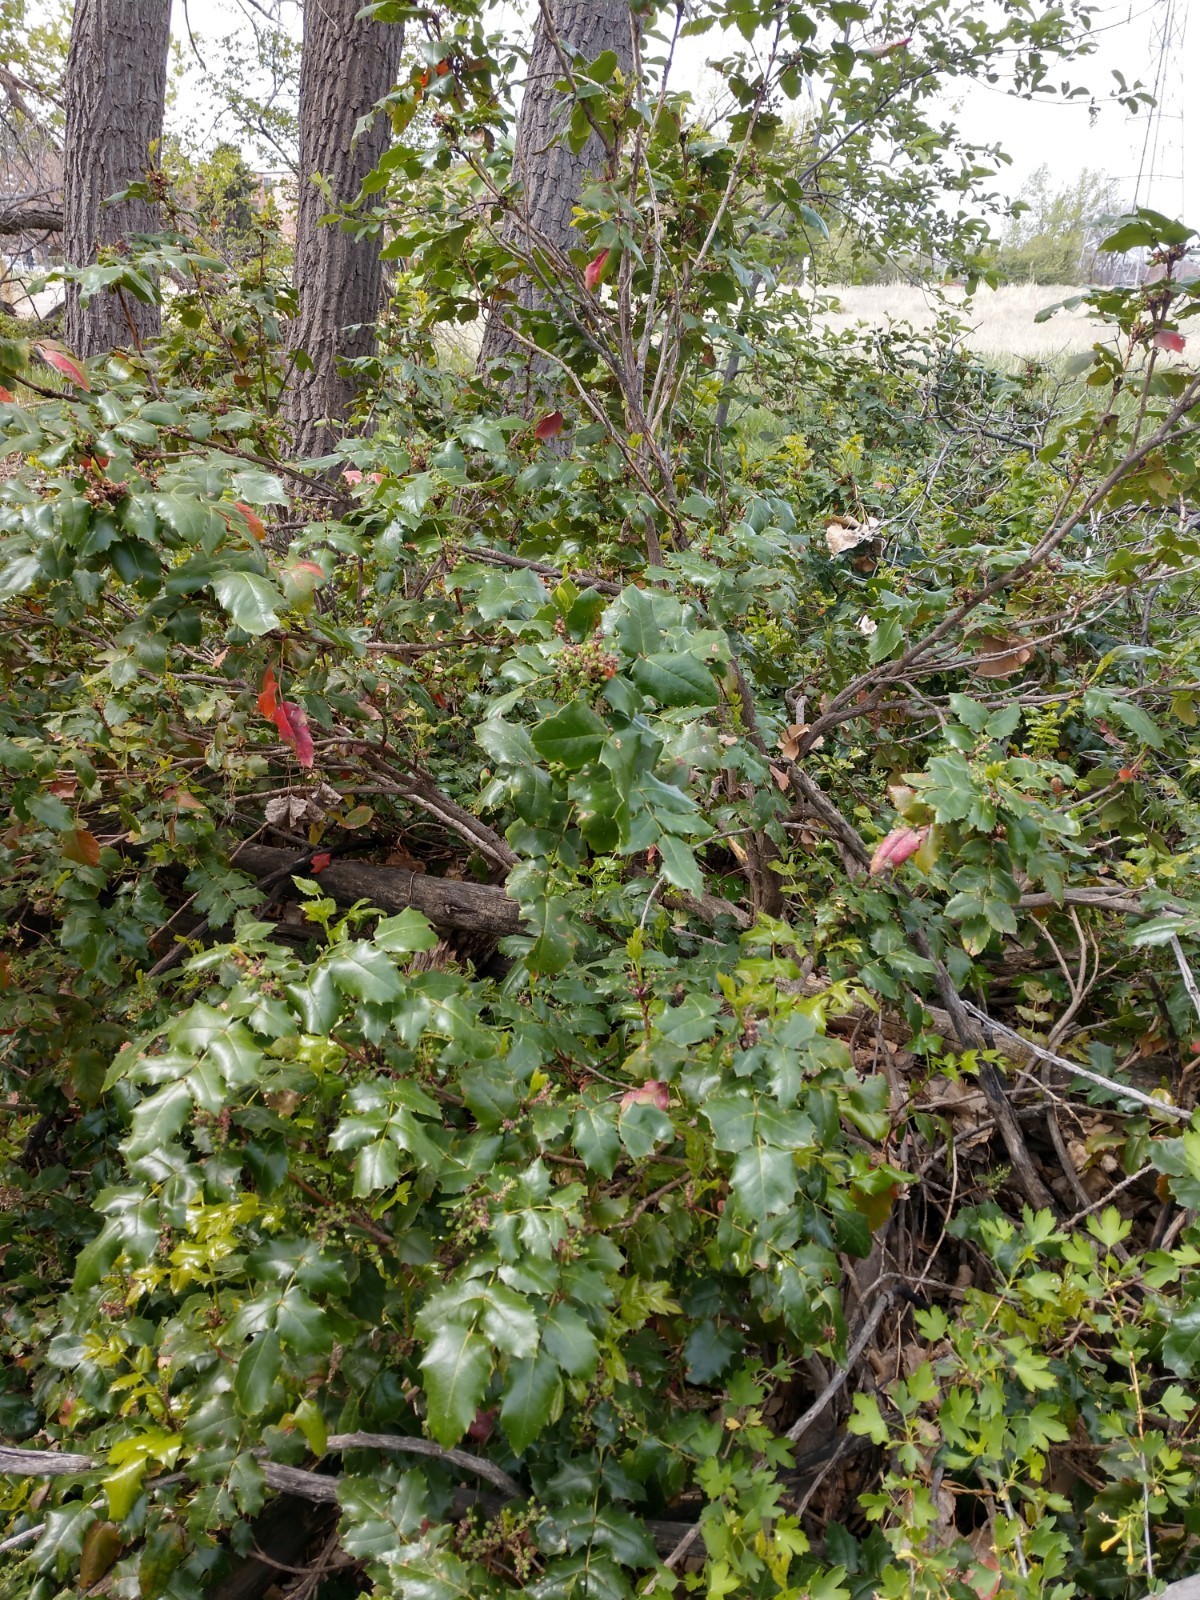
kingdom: Plantae
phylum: Tracheophyta
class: Magnoliopsida
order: Ranunculales
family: Berberidaceae
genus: Mahonia
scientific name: Mahonia aquifolium
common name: Oregon-grape
